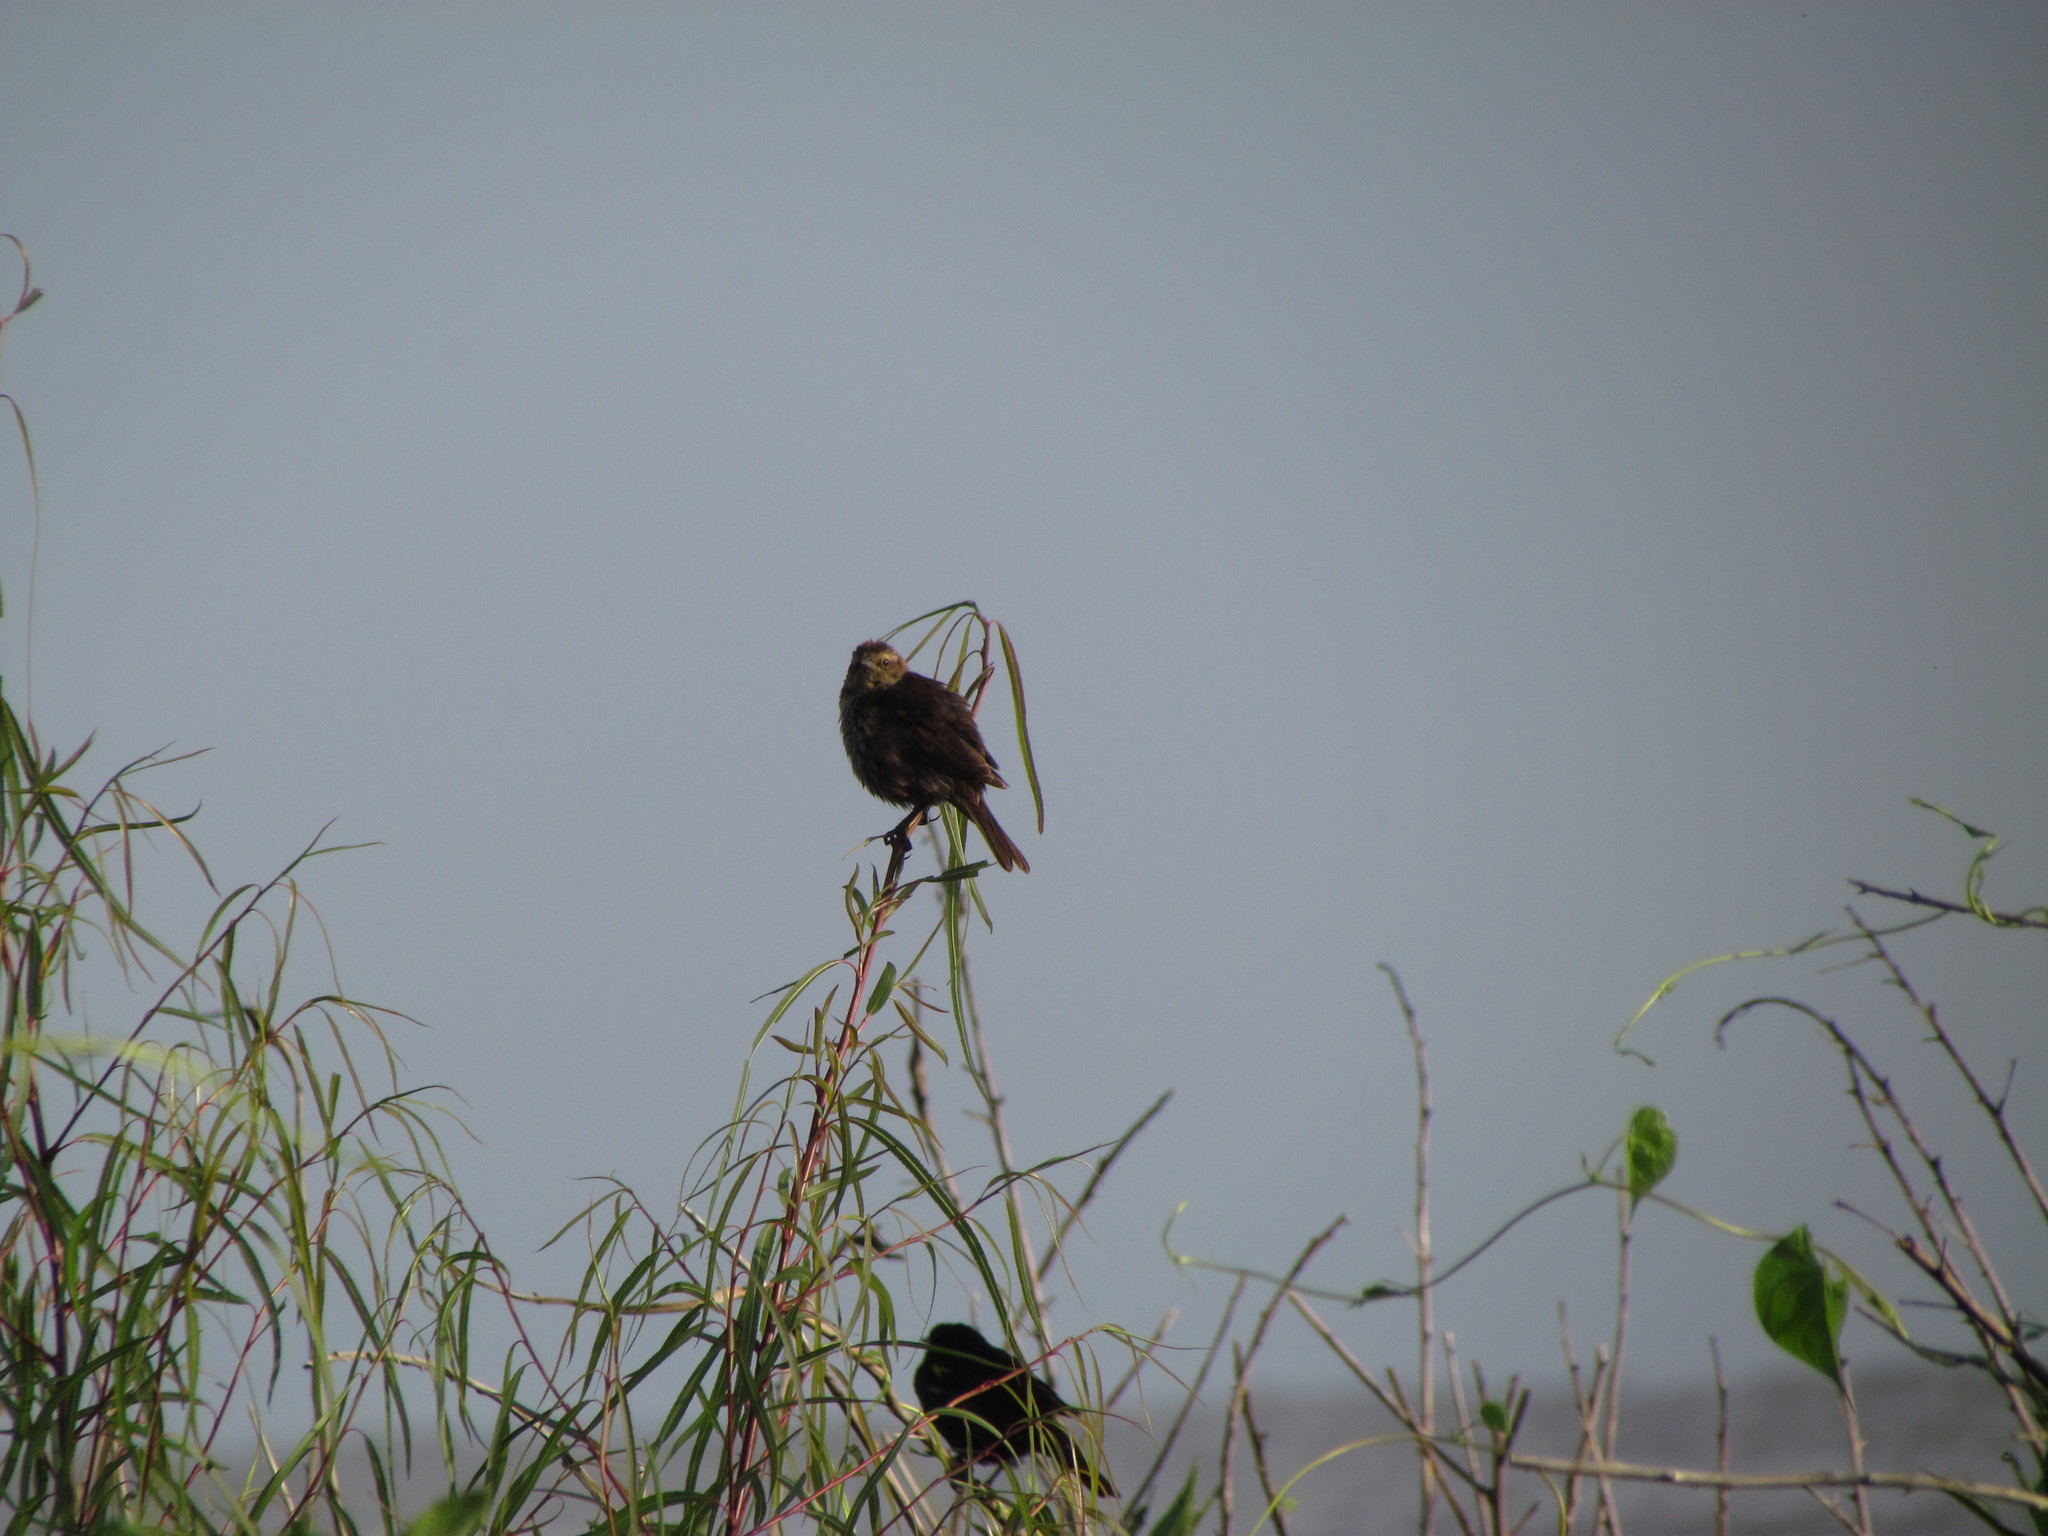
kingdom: Animalia
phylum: Chordata
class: Aves
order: Passeriformes
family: Icteridae
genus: Agelasticus
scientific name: Agelasticus thilius
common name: Yellow-winged blackbird
